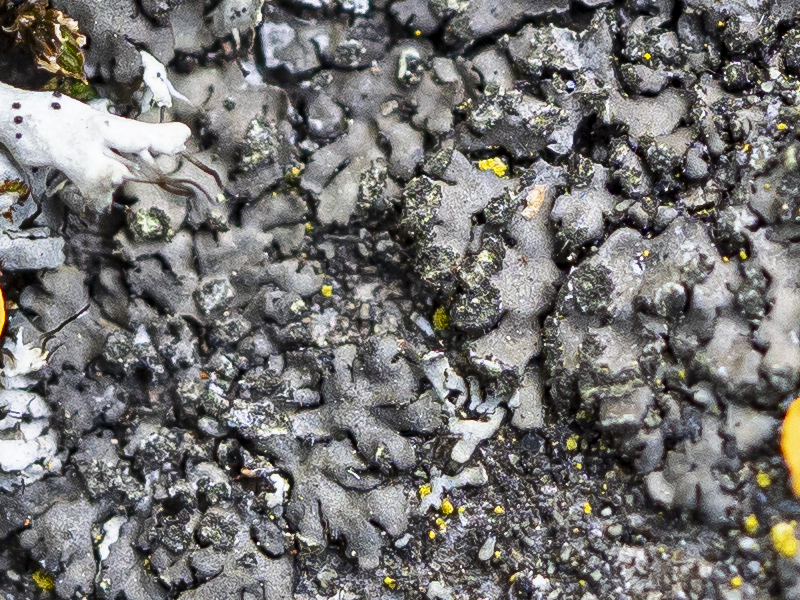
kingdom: Fungi
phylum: Ascomycota
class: Lecanoromycetes
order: Caliciales
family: Physciaceae
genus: Phaeophyscia
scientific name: Phaeophyscia orbicularis
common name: Mealy shadow lichen
